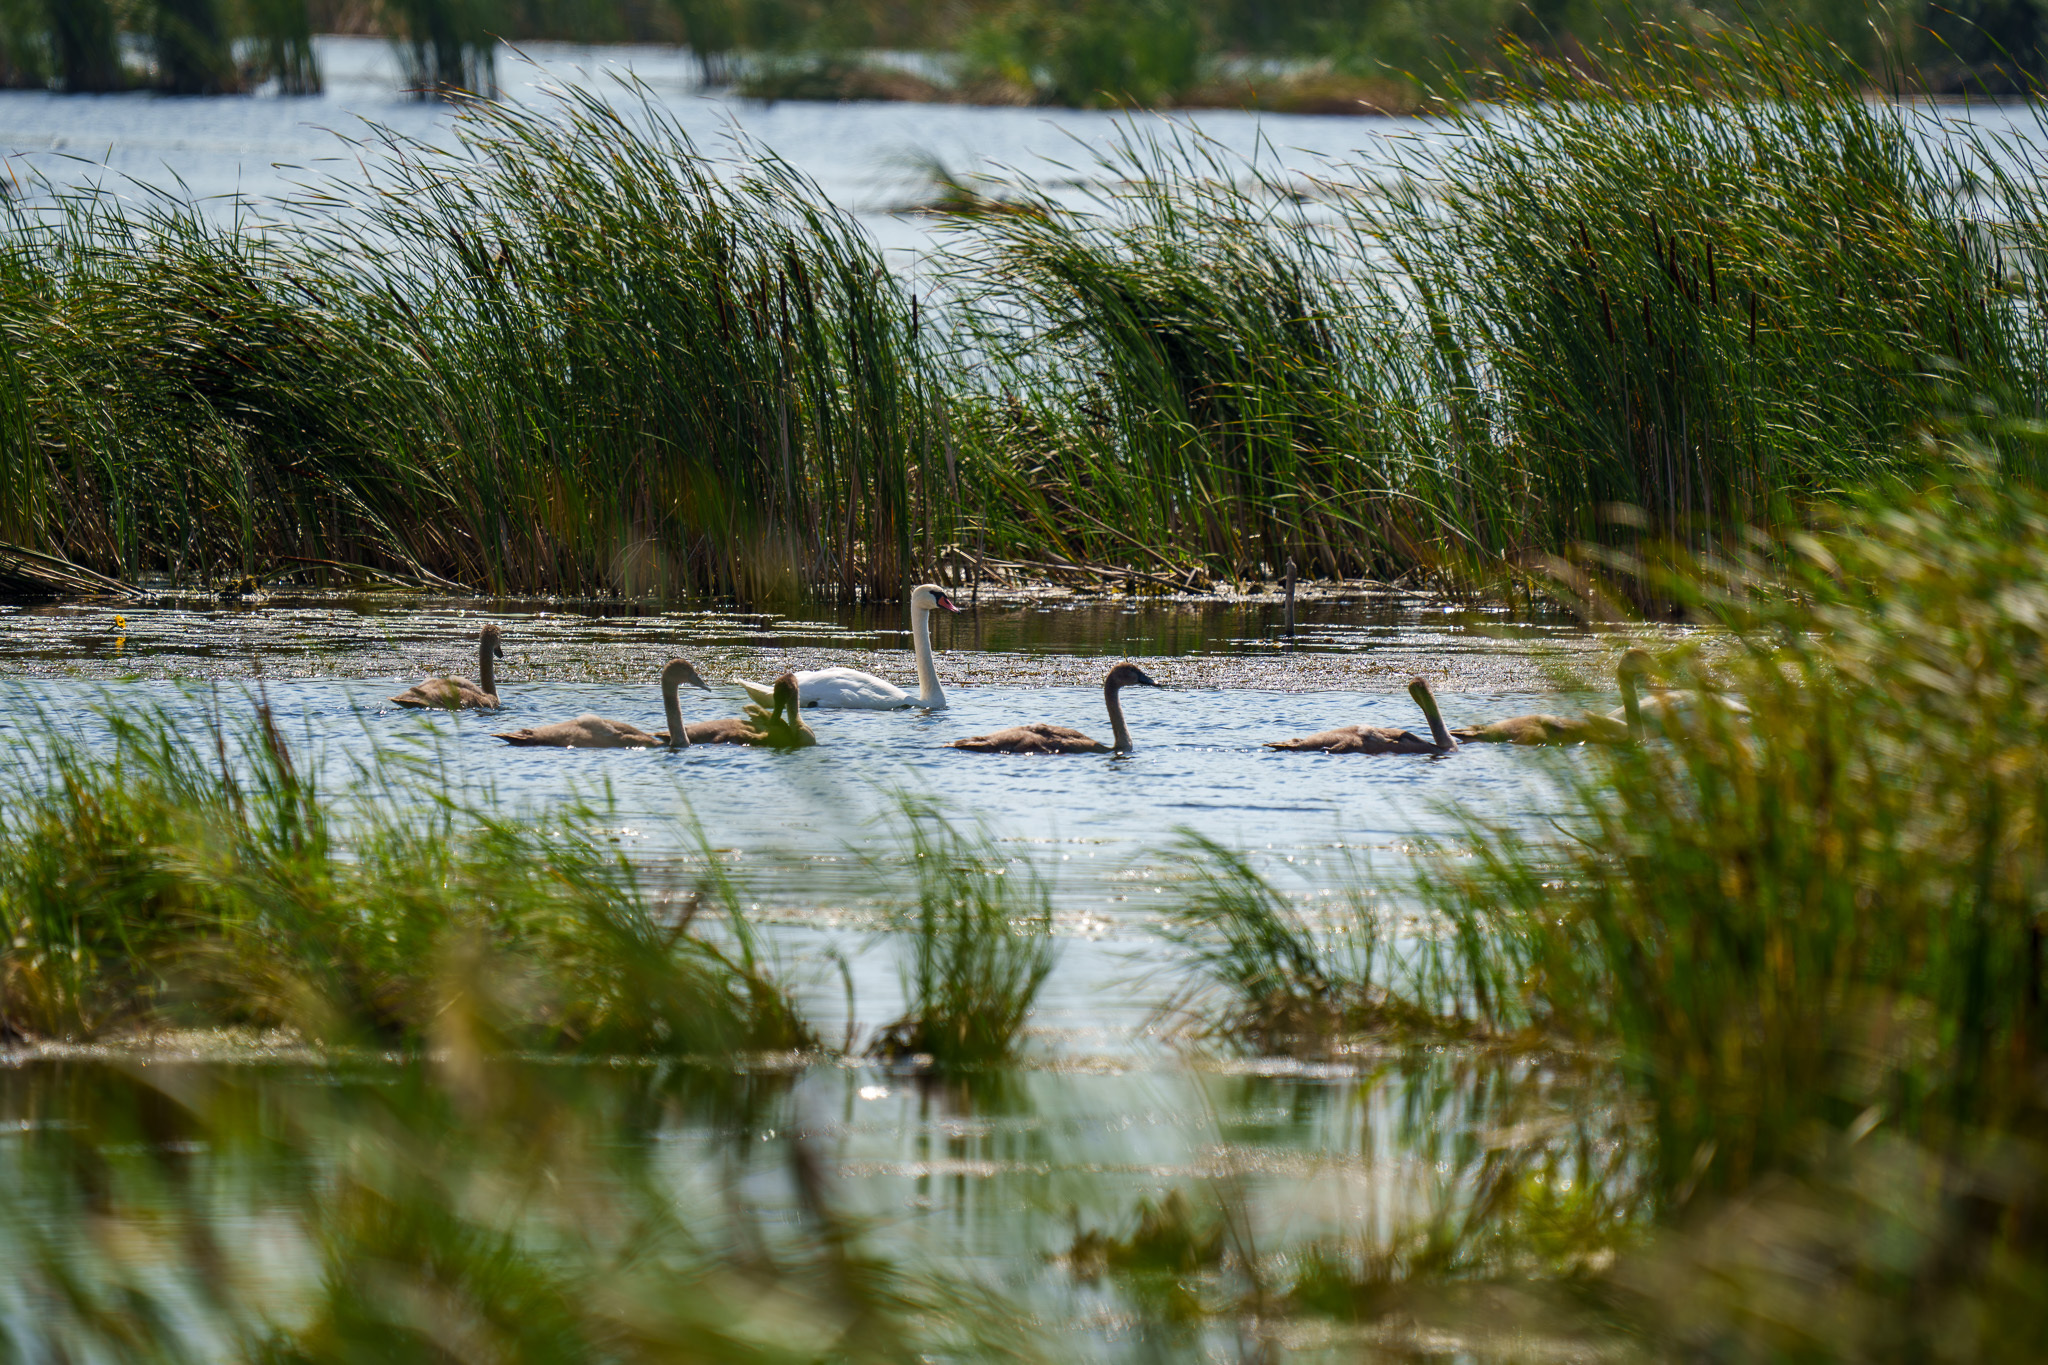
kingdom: Animalia
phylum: Chordata
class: Aves
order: Anseriformes
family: Anatidae
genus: Cygnus
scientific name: Cygnus olor
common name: Mute swan
